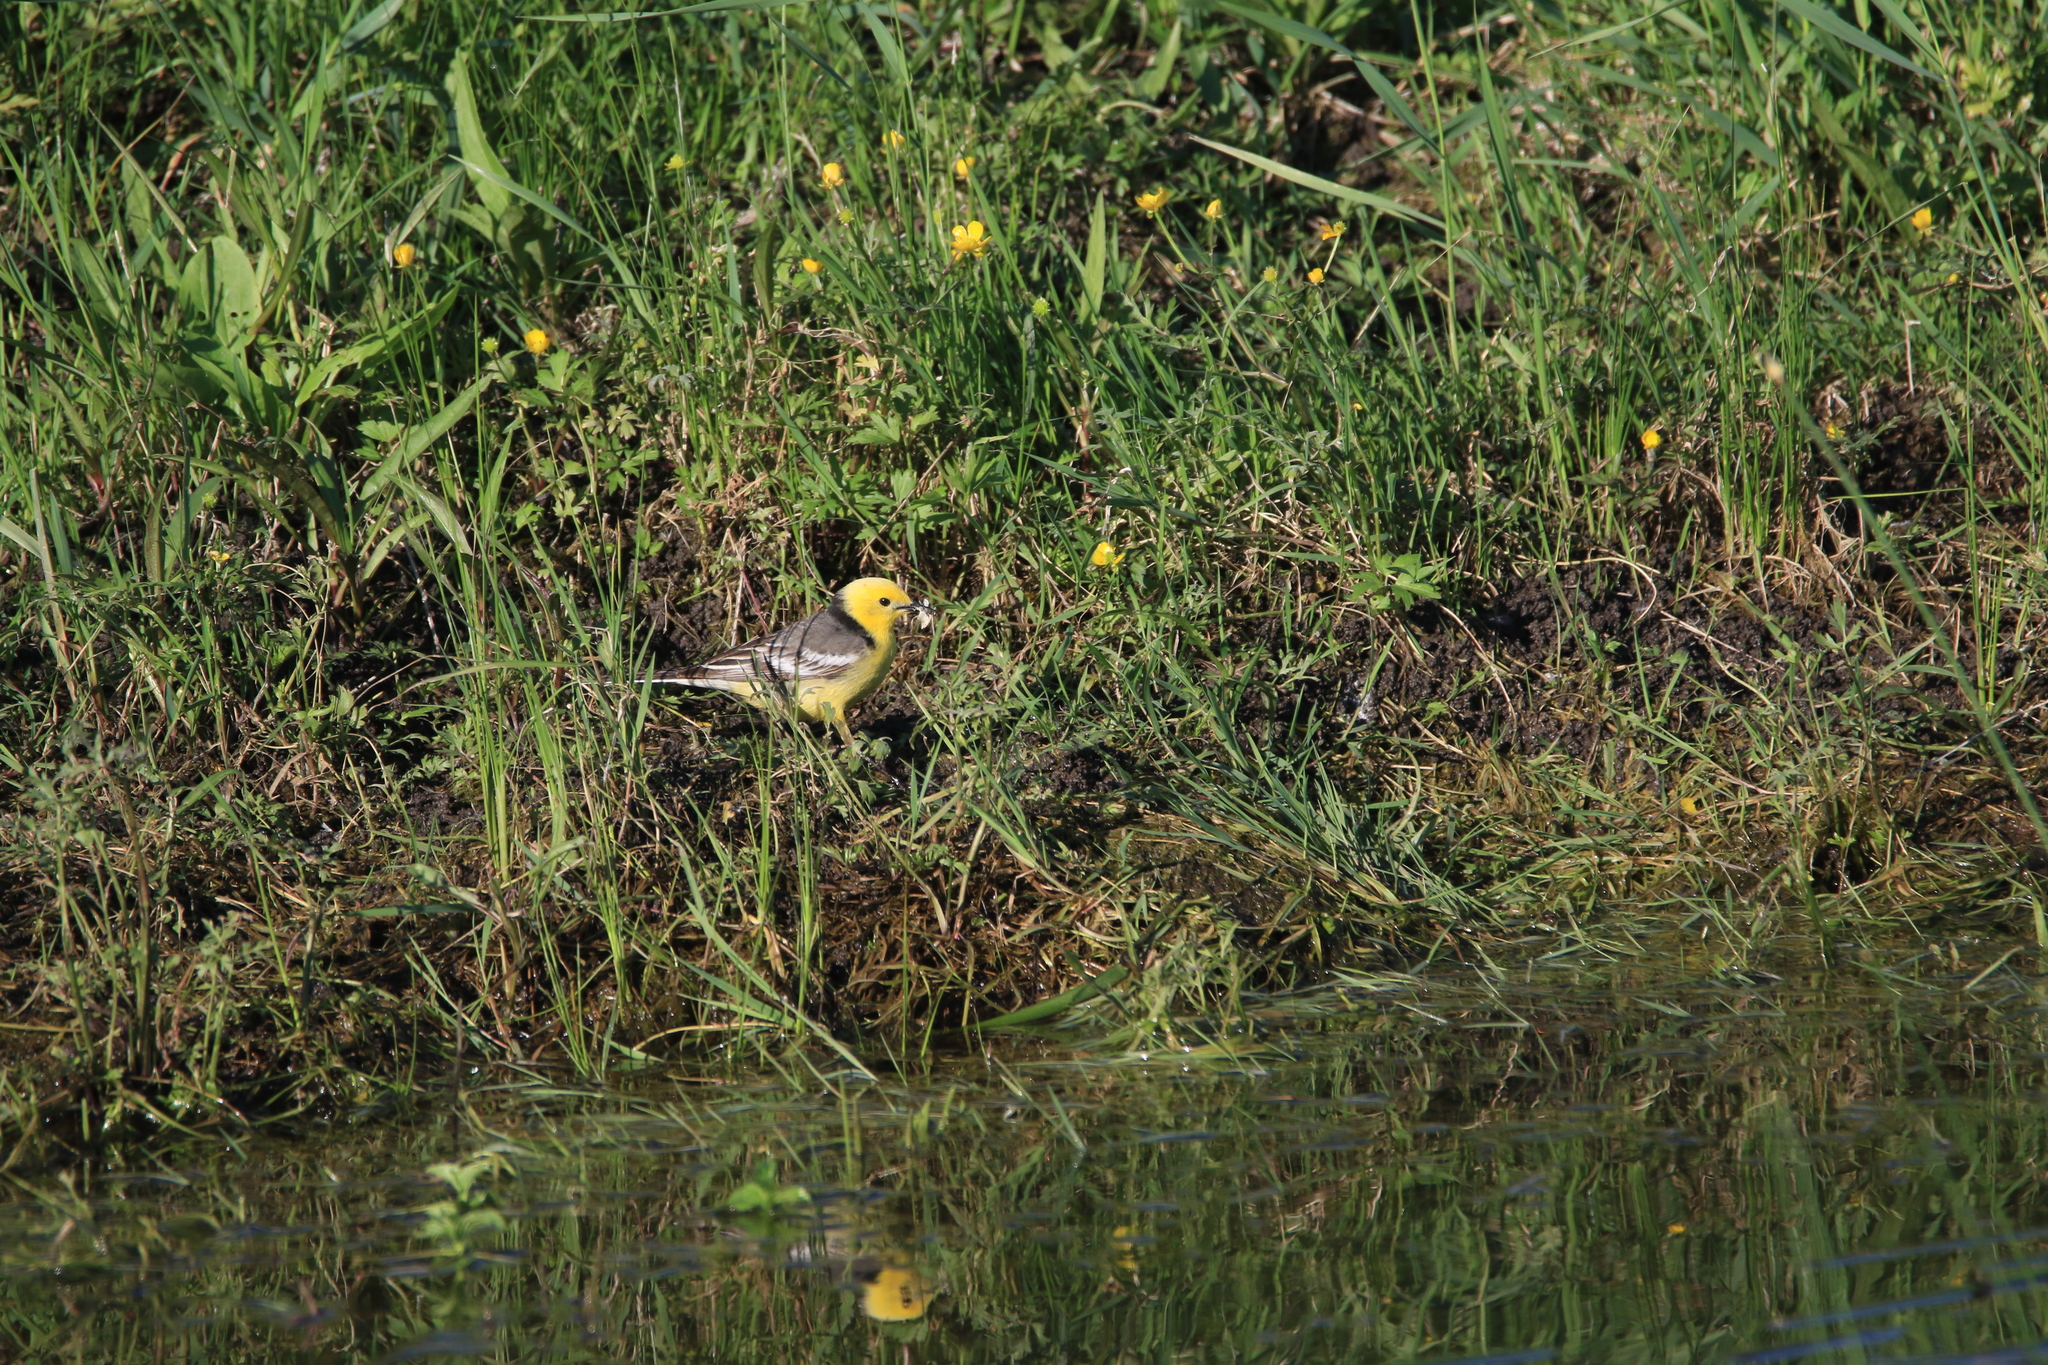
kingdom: Animalia
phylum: Chordata
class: Aves
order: Passeriformes
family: Motacillidae
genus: Motacilla
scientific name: Motacilla citreola
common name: Citrine wagtail
